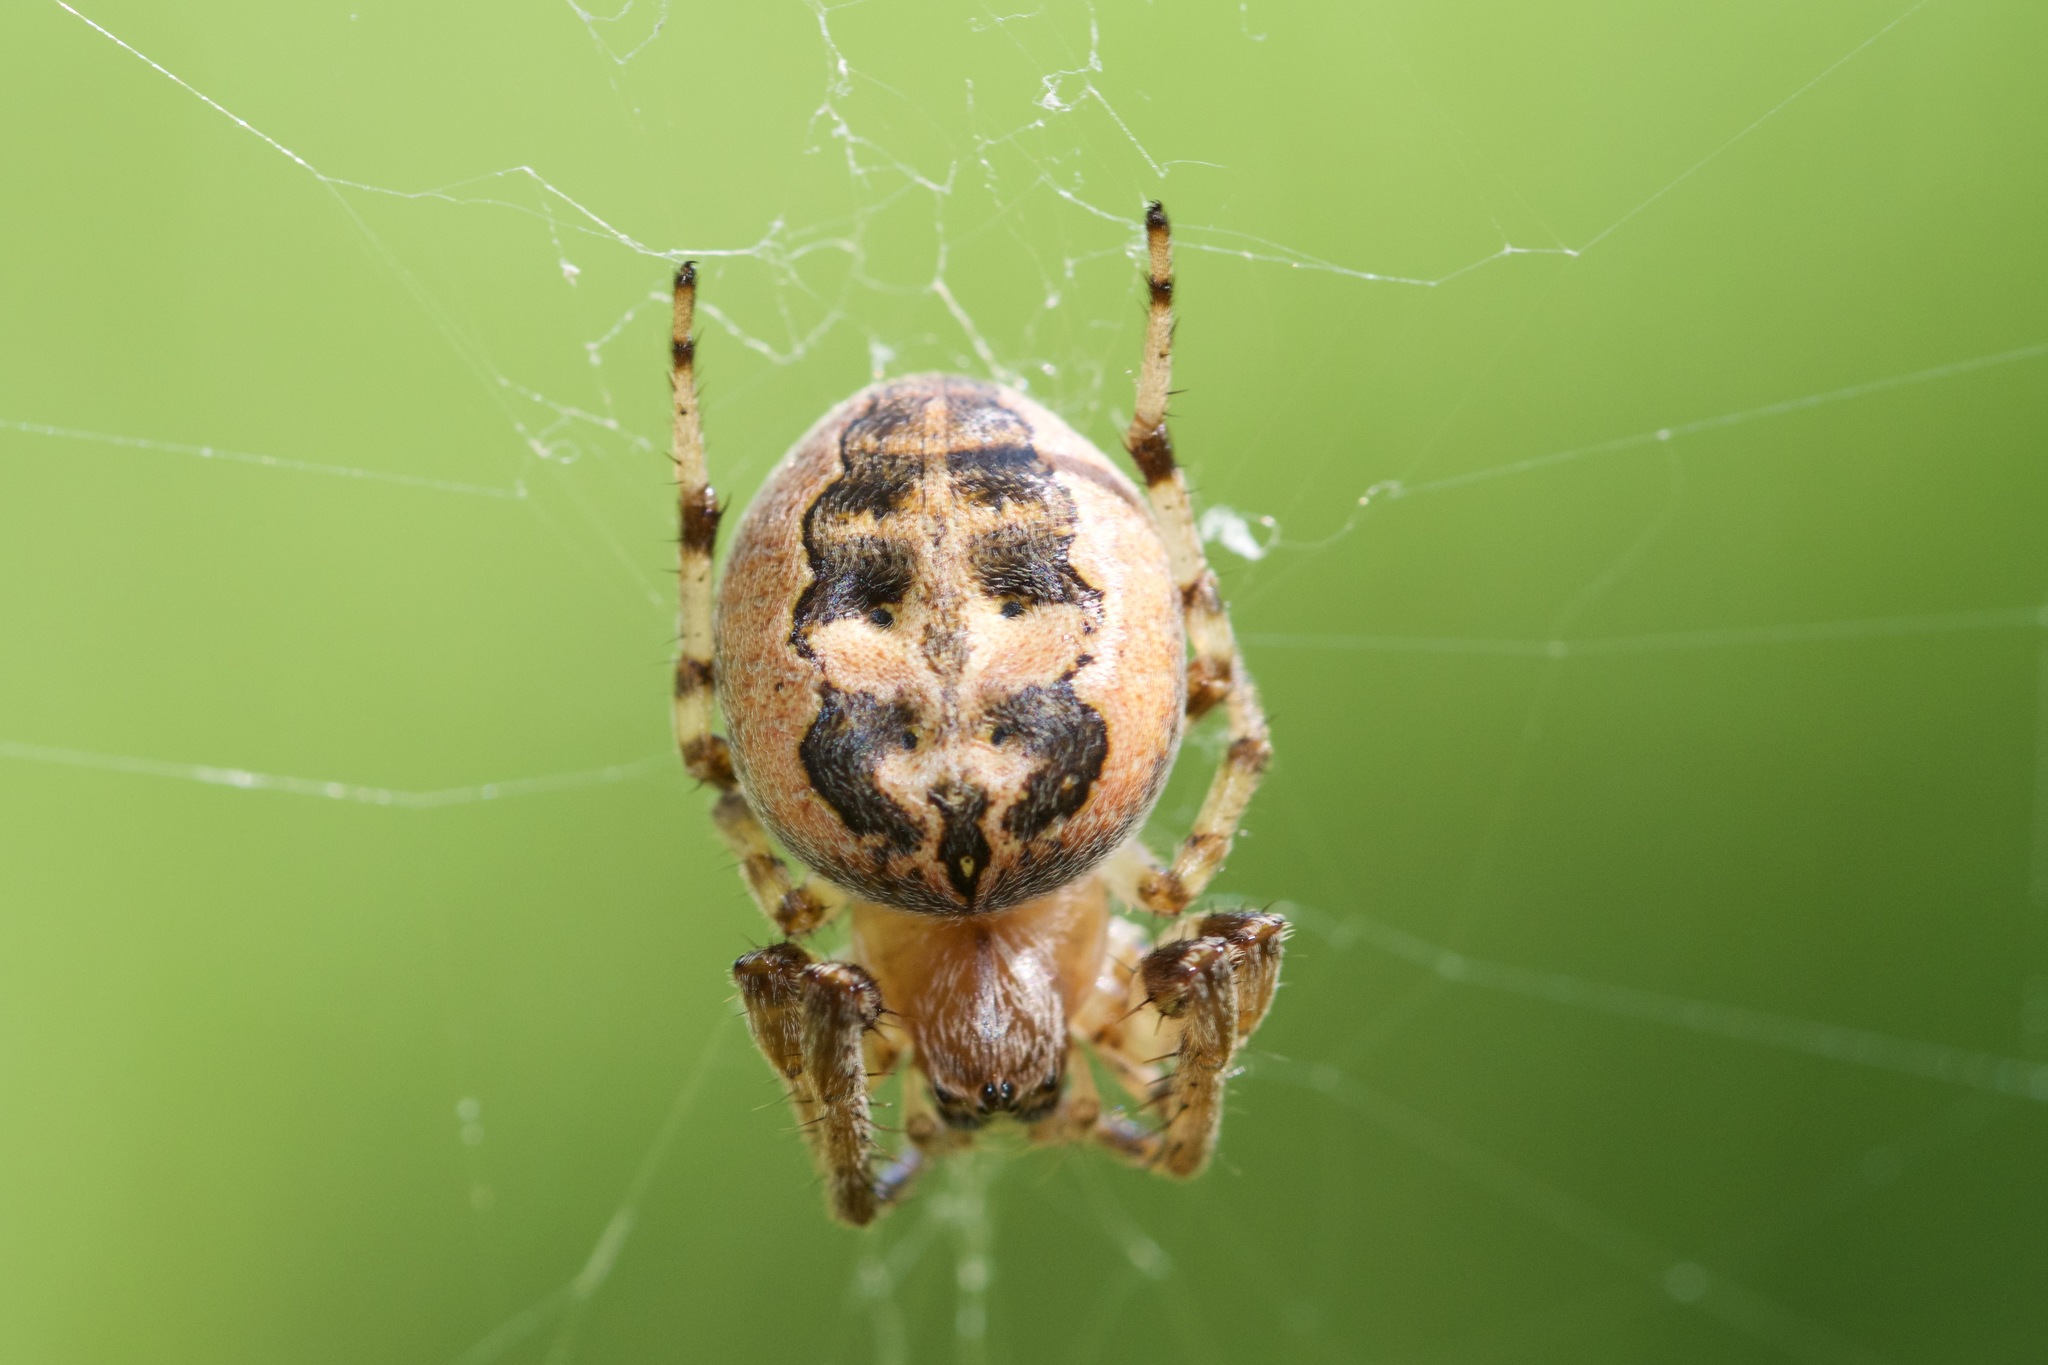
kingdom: Animalia
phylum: Arthropoda
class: Arachnida
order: Araneae
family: Araneidae
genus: Larinioides
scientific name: Larinioides cornutus
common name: Furrow orbweaver
